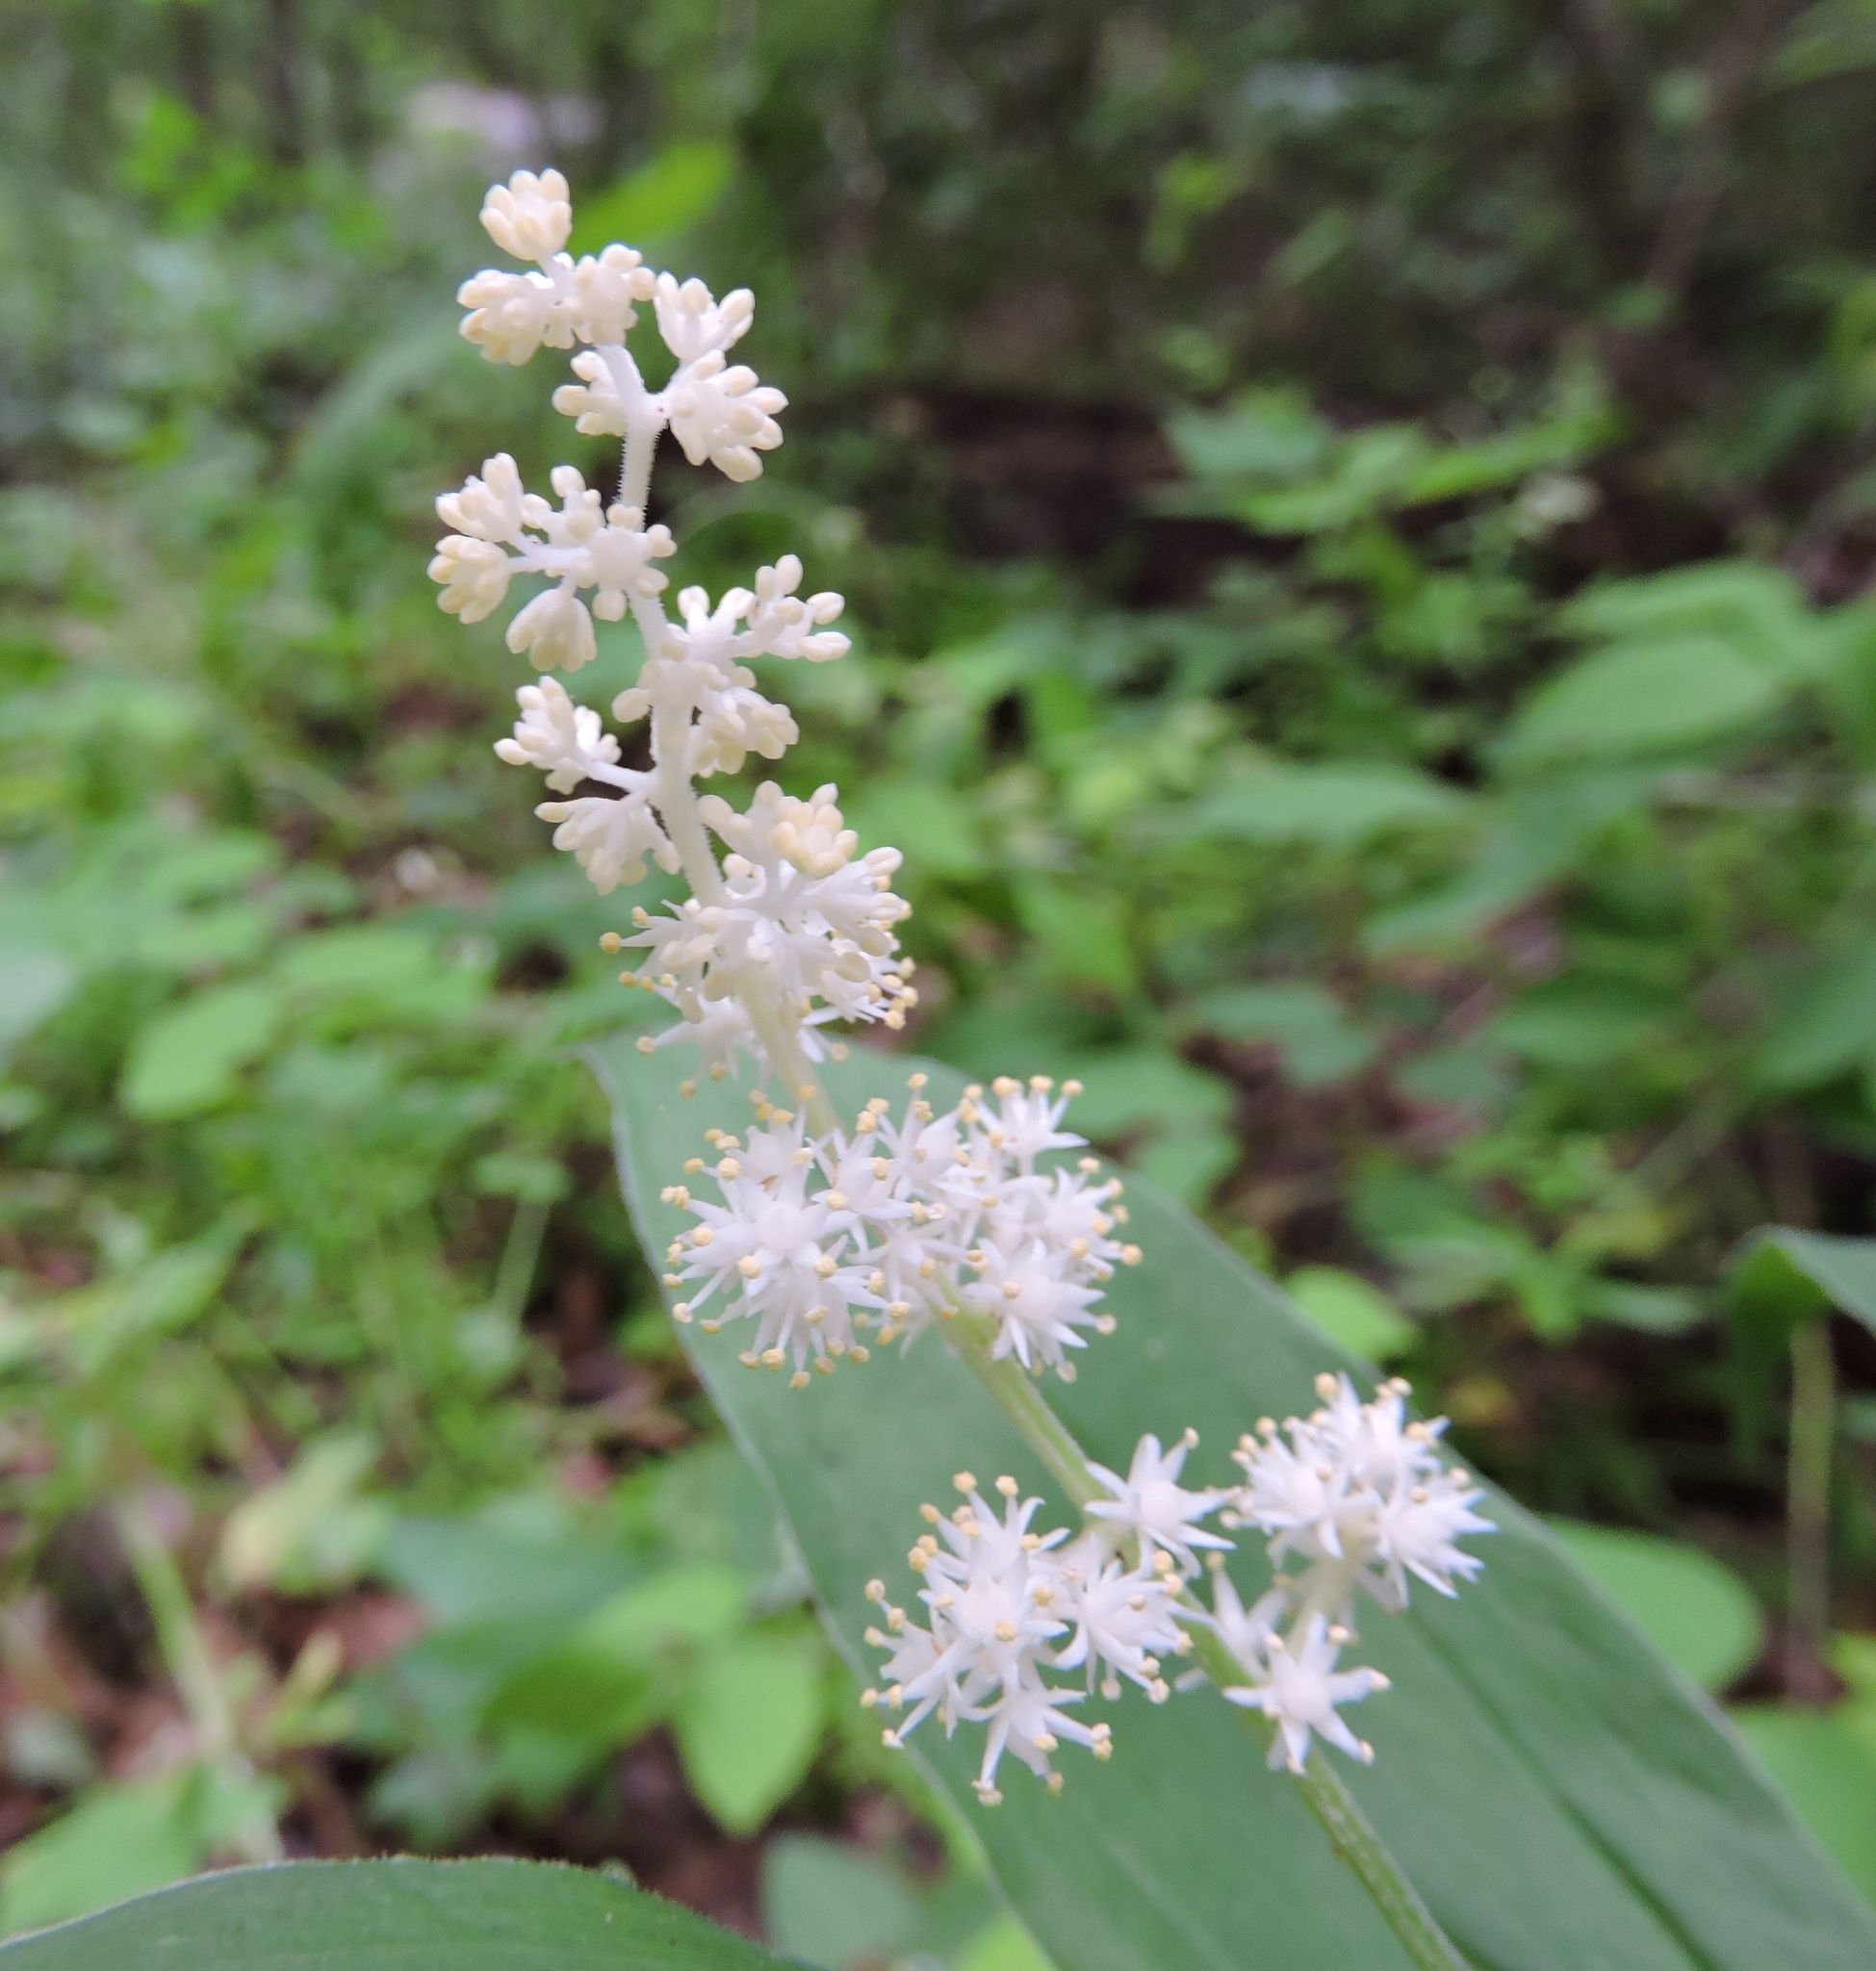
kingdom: Plantae
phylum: Tracheophyta
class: Liliopsida
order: Asparagales
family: Asparagaceae
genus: Maianthemum
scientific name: Maianthemum racemosum
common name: False spikenard
